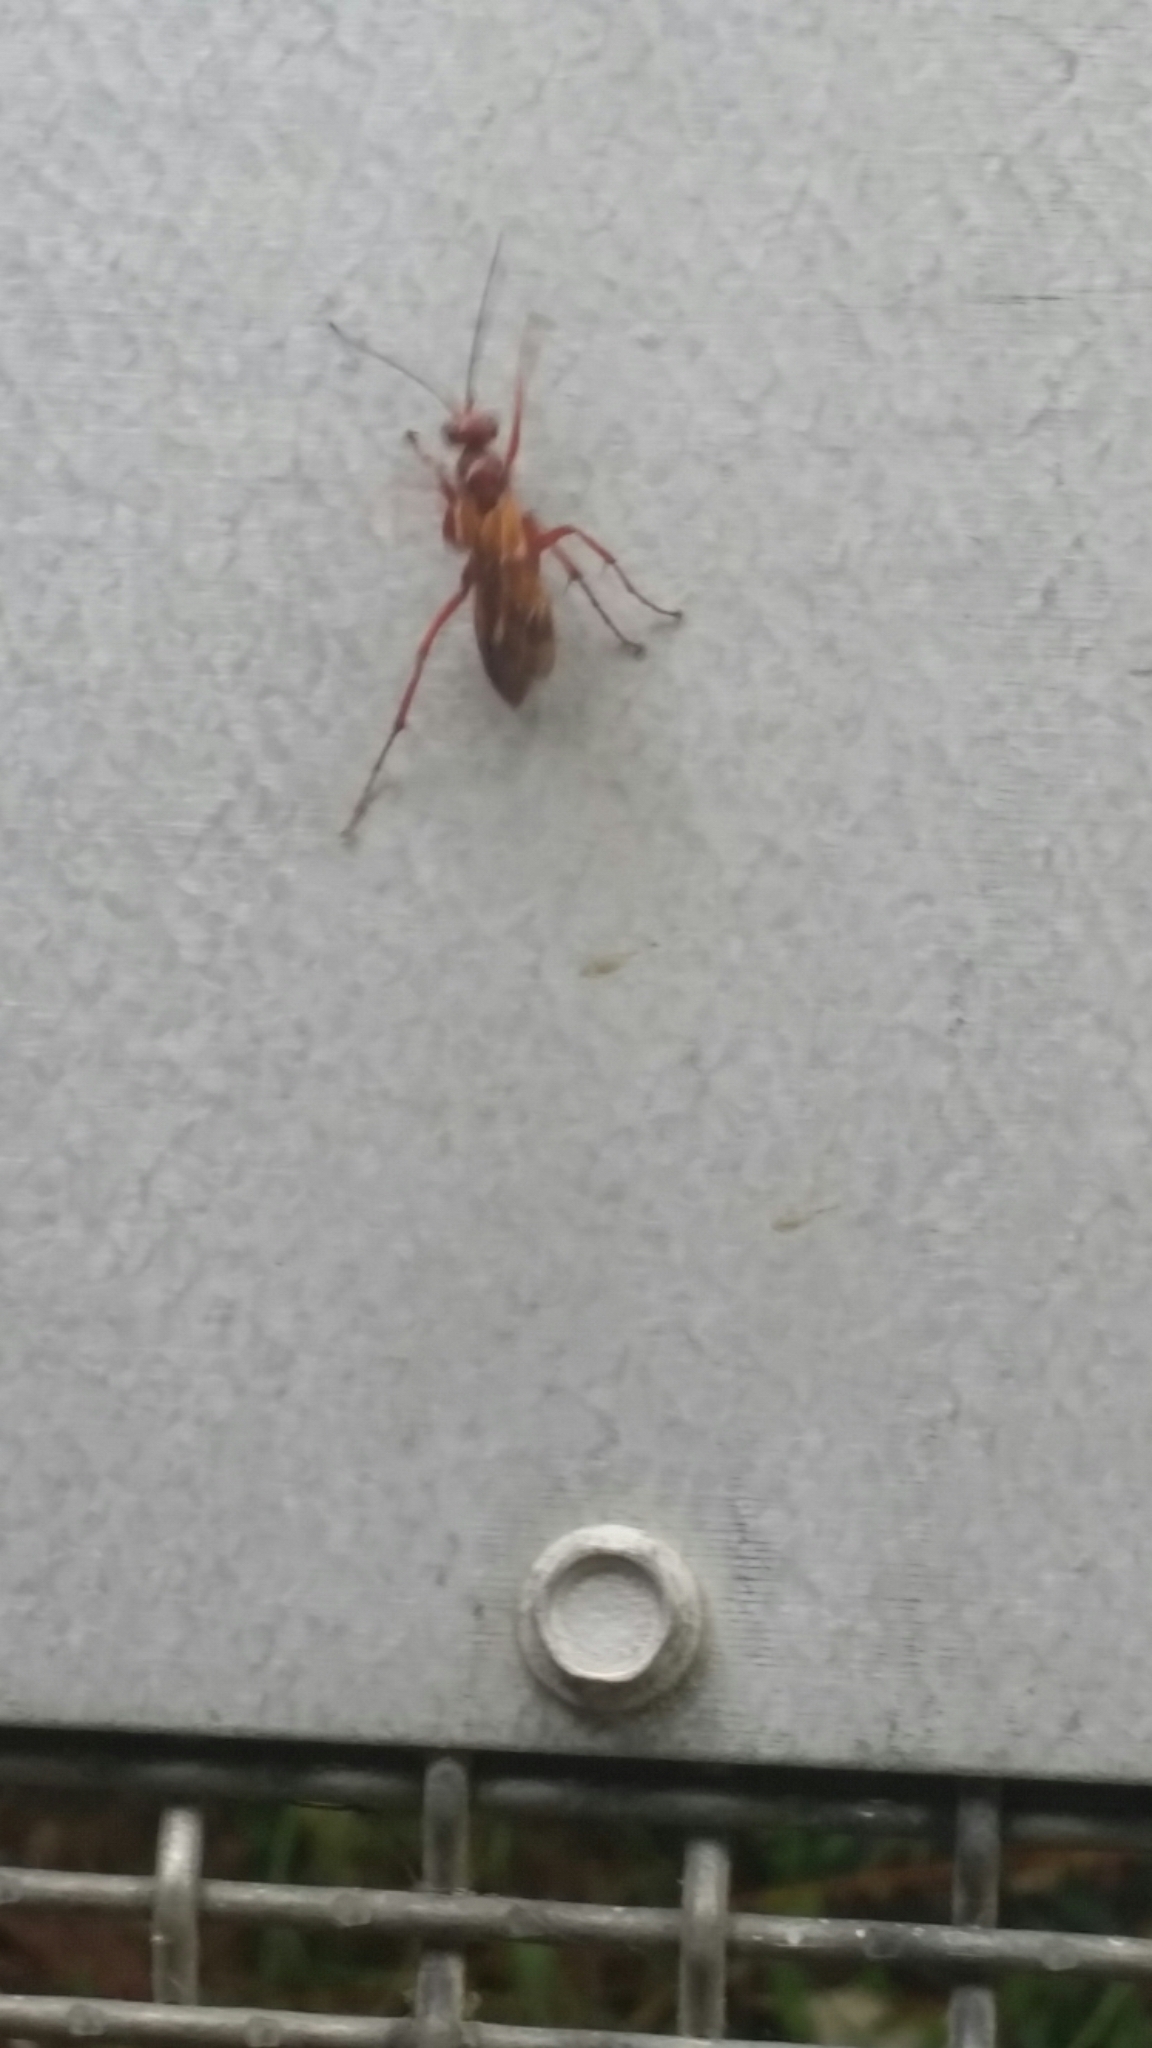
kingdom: Animalia
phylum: Arthropoda
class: Insecta
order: Hymenoptera
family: Pompilidae
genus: Sphictostethus
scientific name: Sphictostethus nitidus
